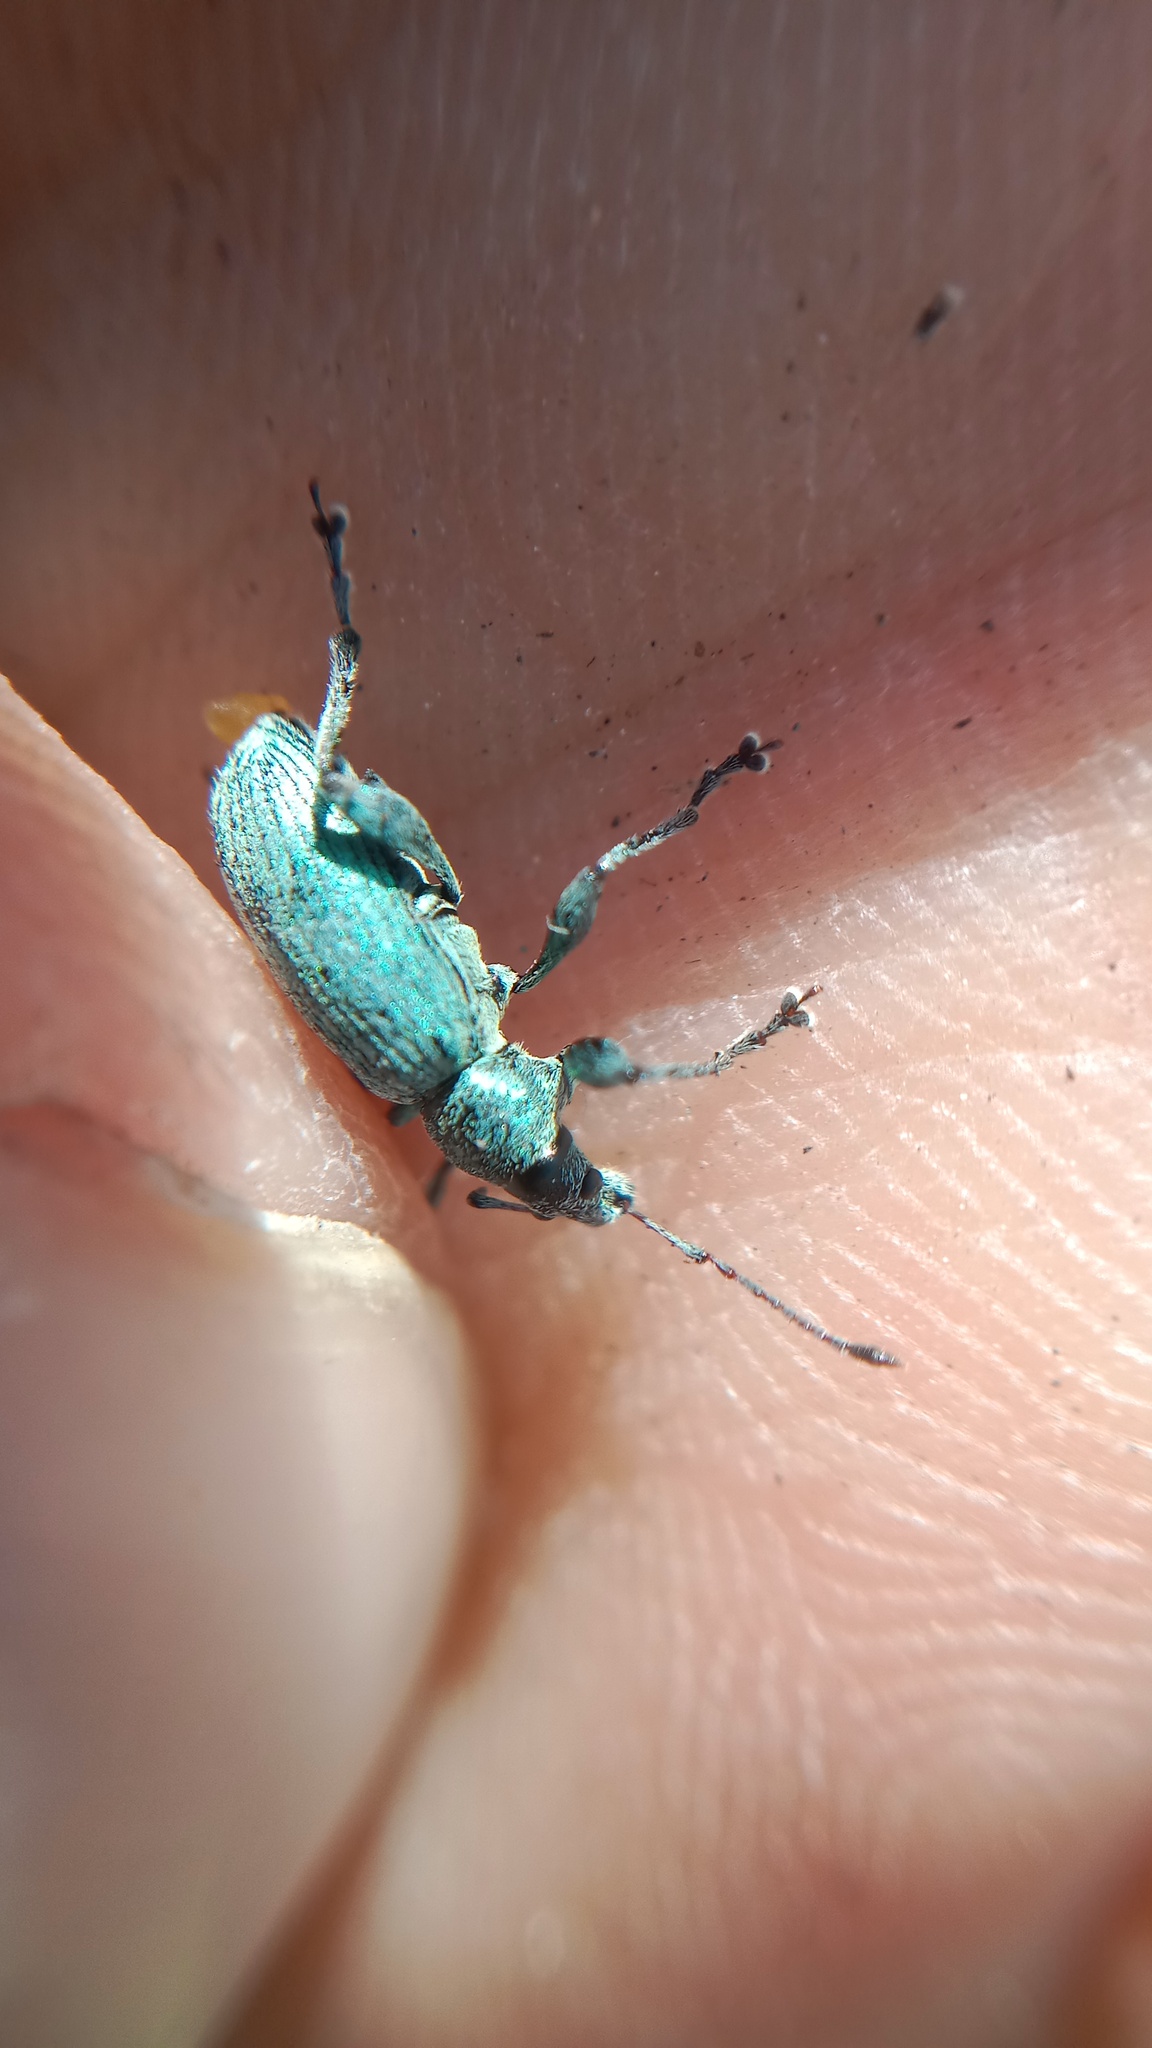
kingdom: Animalia
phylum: Arthropoda
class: Insecta
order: Coleoptera
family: Curculionidae
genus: Phyllobius
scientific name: Phyllobius pomaceus
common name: Green nettle weevil
